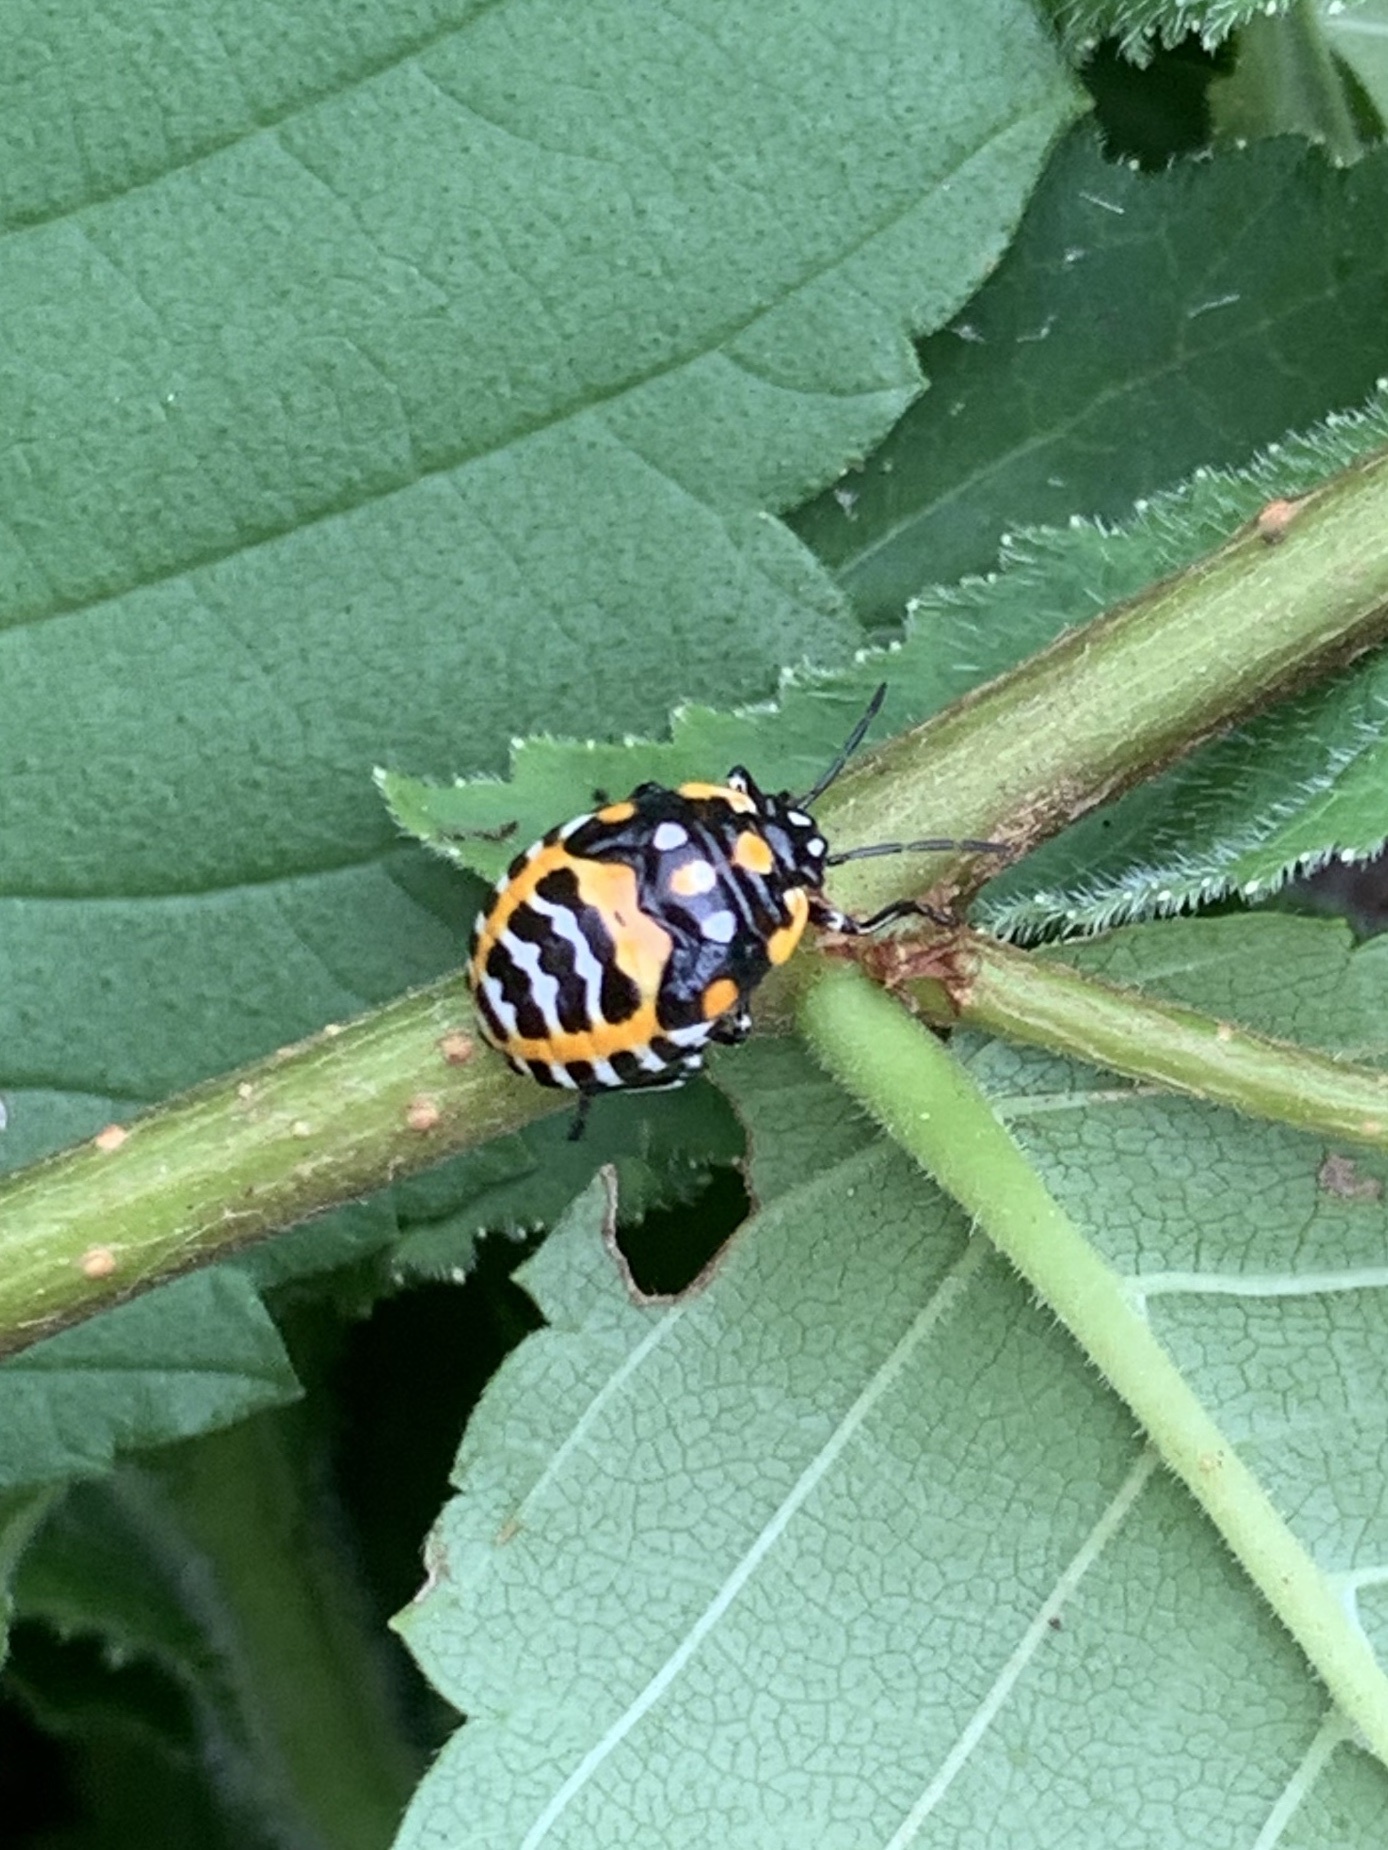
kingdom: Animalia
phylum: Arthropoda
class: Insecta
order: Hemiptera
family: Pentatomidae
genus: Murgantia
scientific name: Murgantia histrionica
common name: Harlequin bug
